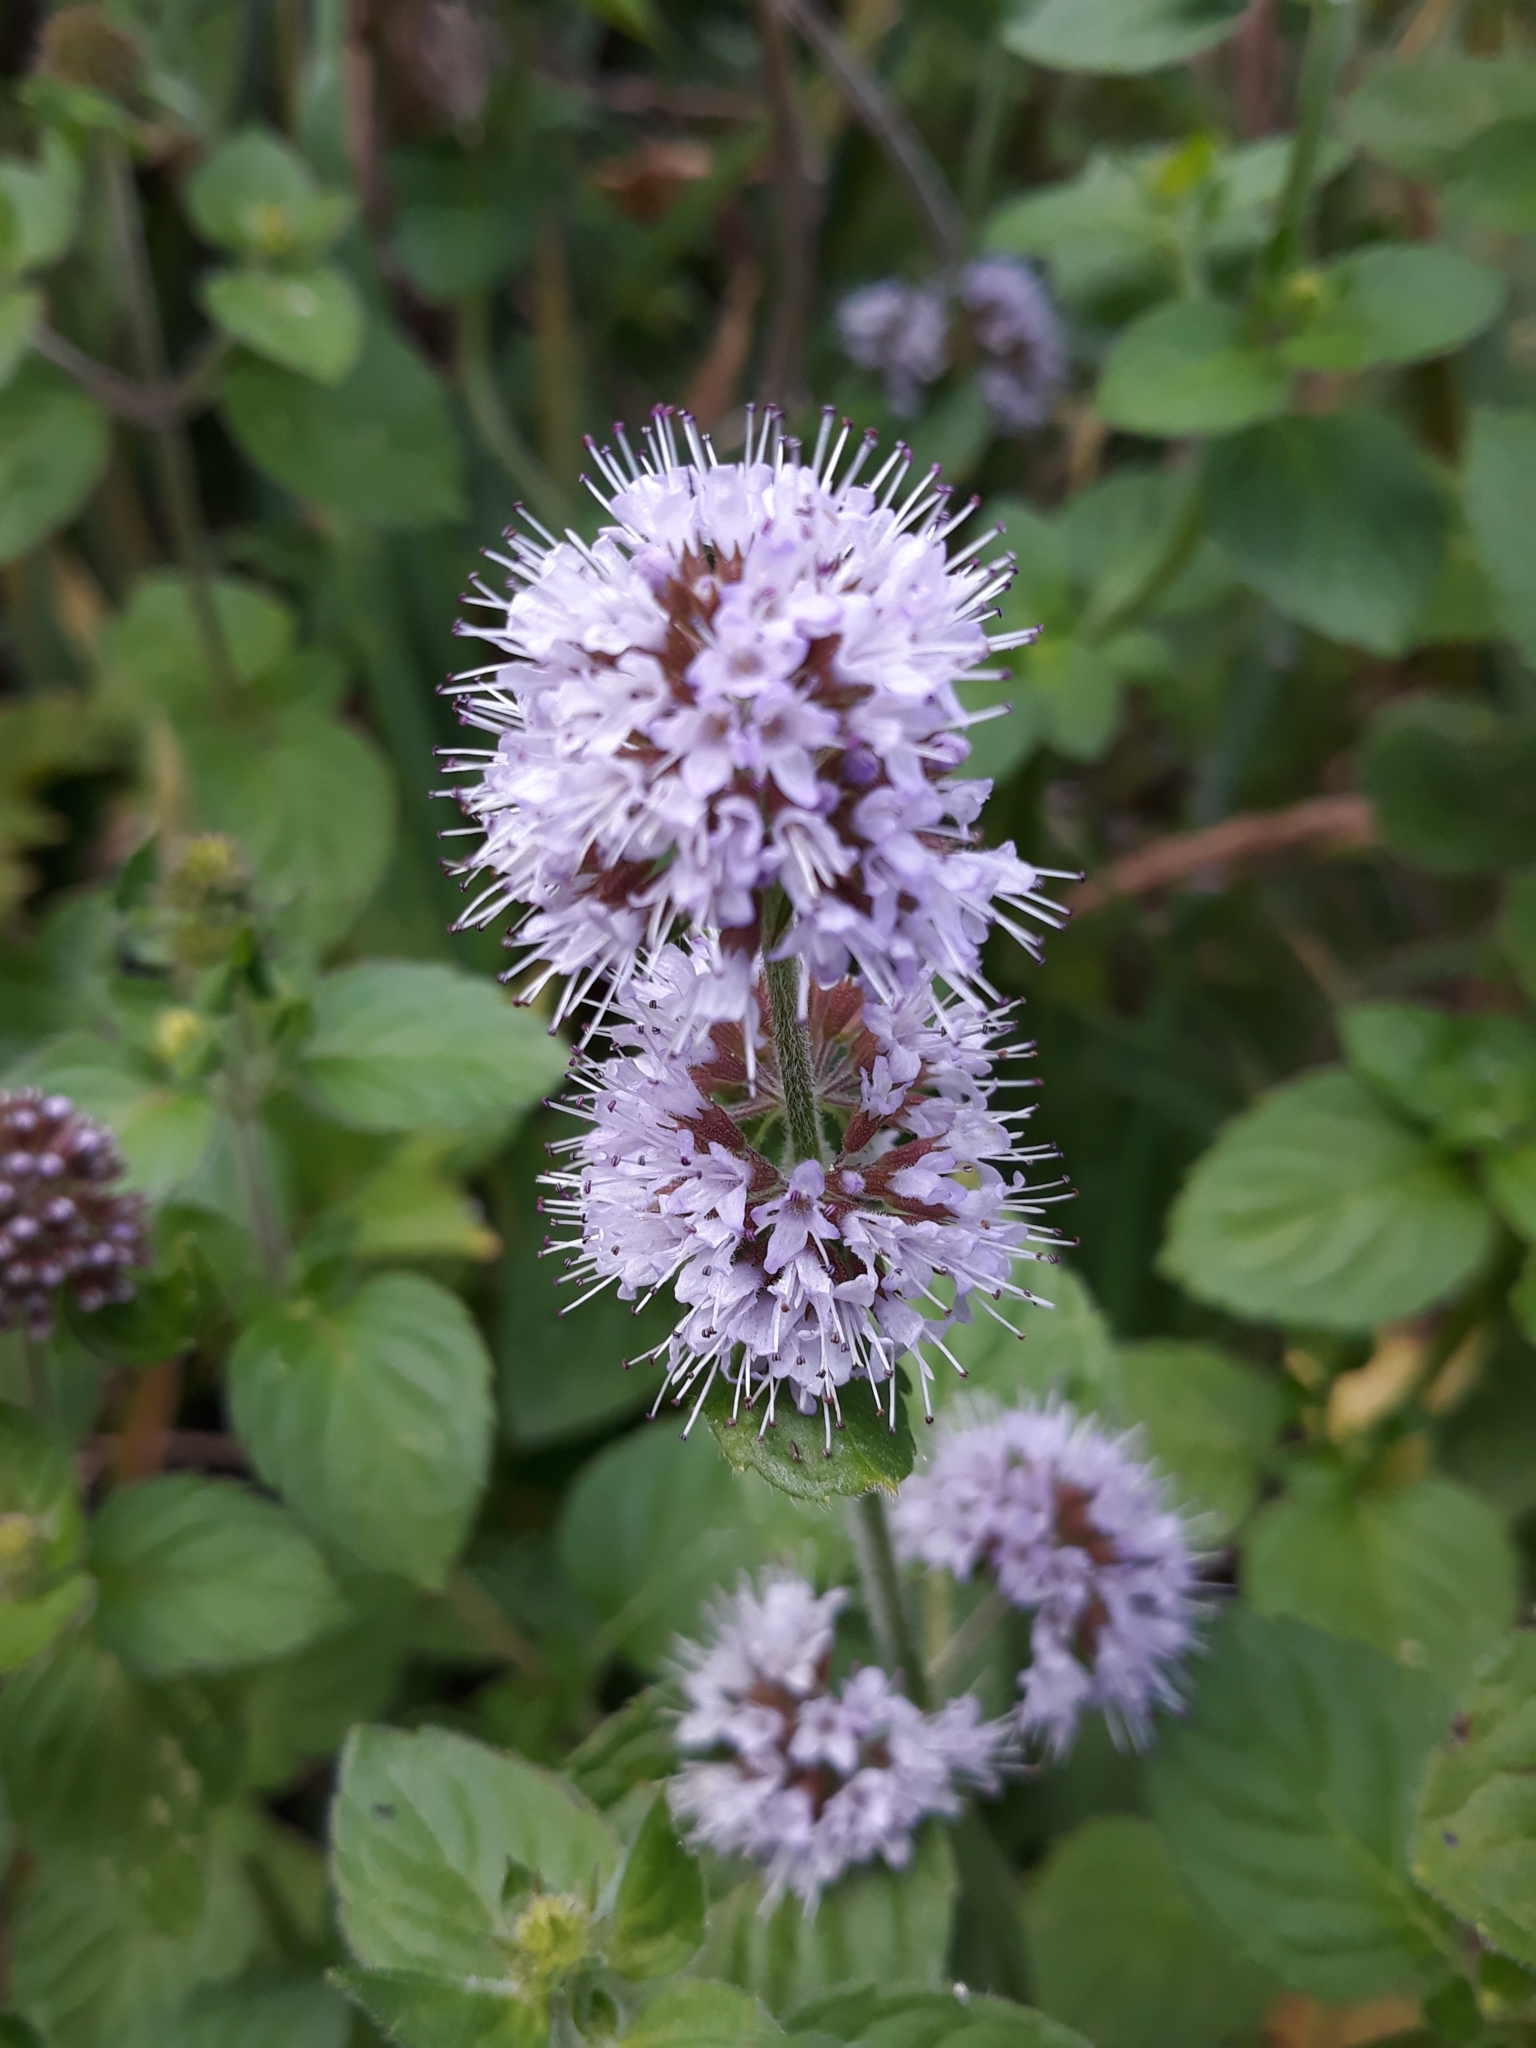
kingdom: Plantae
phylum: Tracheophyta
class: Magnoliopsida
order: Lamiales
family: Lamiaceae
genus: Mentha
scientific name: Mentha aquatica
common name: Water mint
